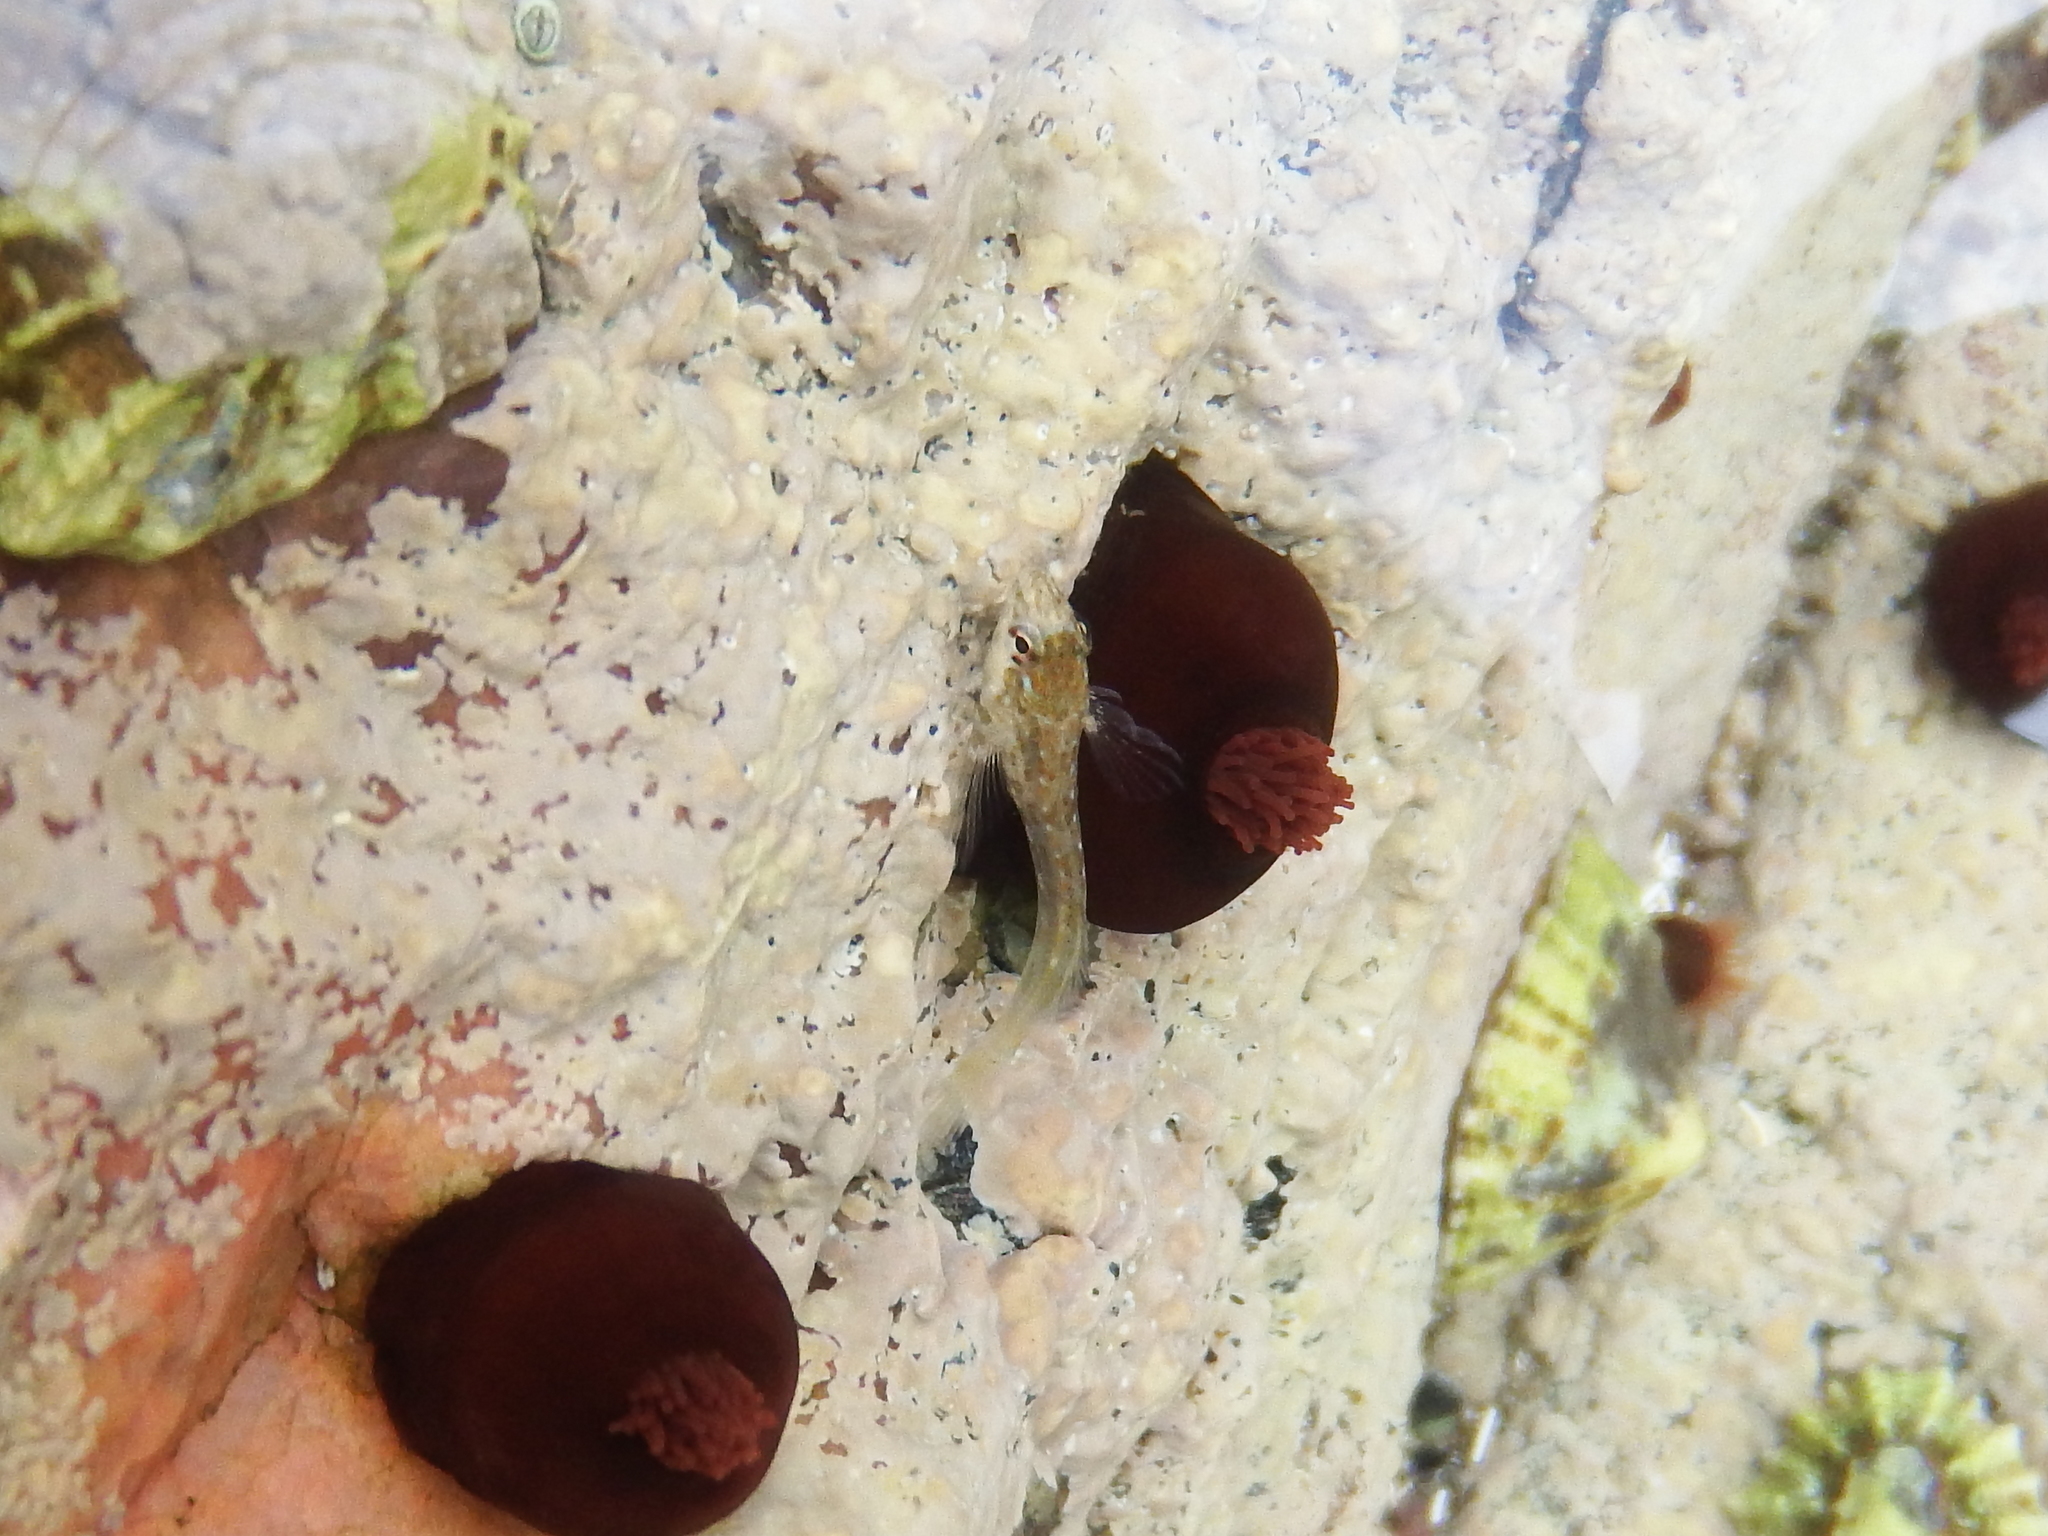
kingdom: Animalia
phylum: Cnidaria
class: Anthozoa
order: Actiniaria
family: Actiniidae
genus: Actinia
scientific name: Actinia equina
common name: Beadlet anemone
